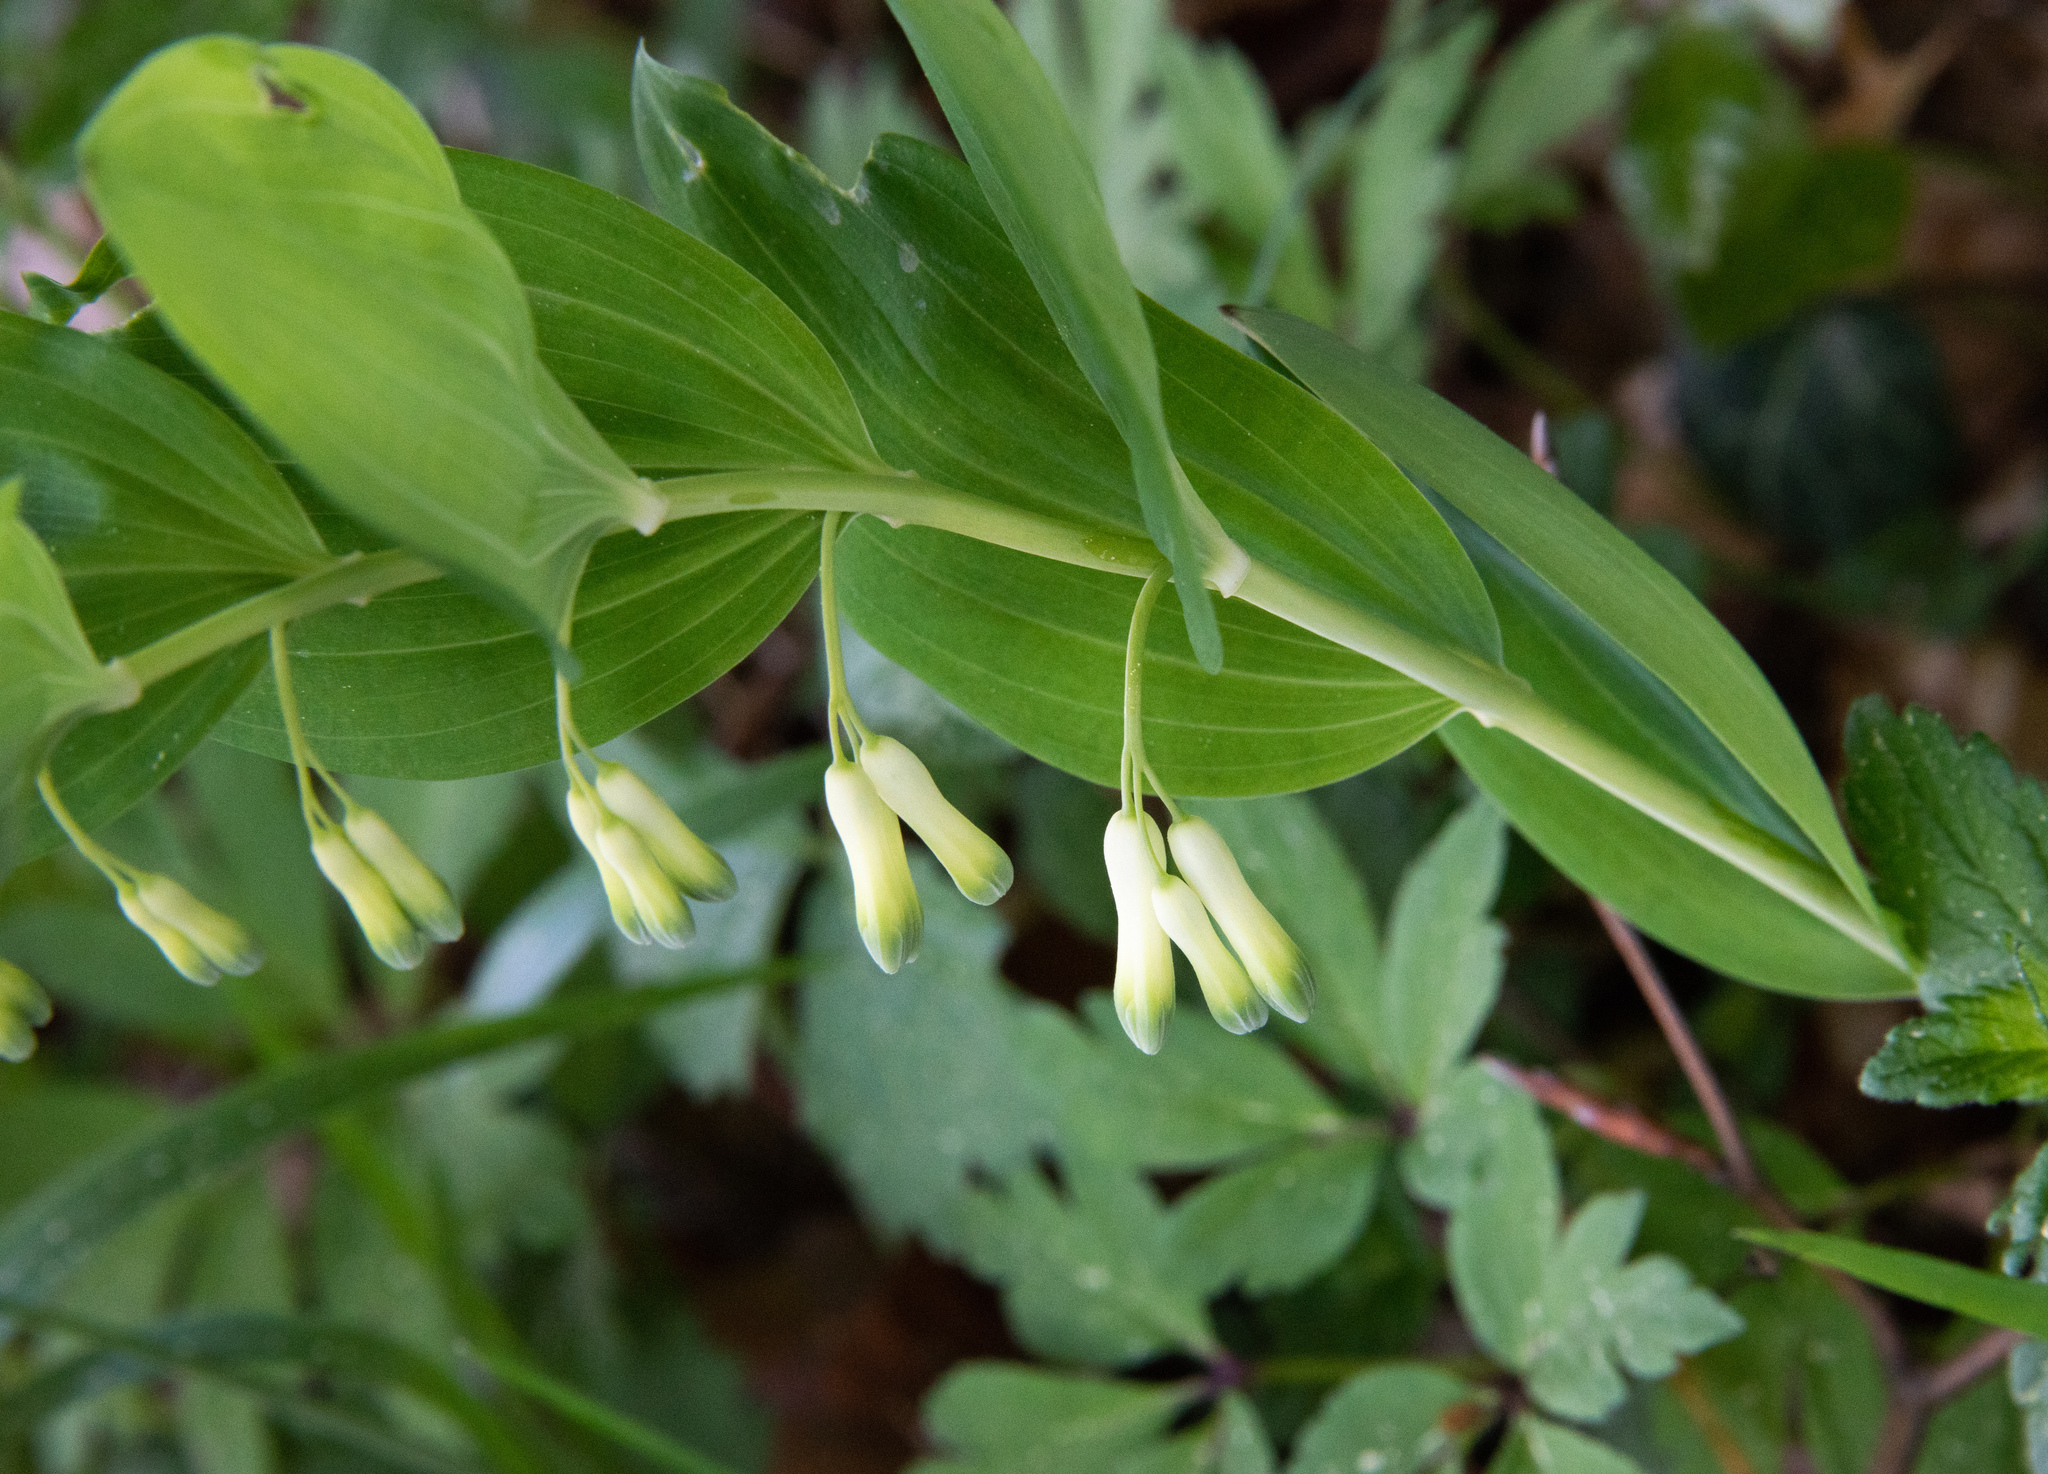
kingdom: Plantae
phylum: Tracheophyta
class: Liliopsida
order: Asparagales
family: Asparagaceae
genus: Polygonatum
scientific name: Polygonatum multiflorum
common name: Solomon's-seal
